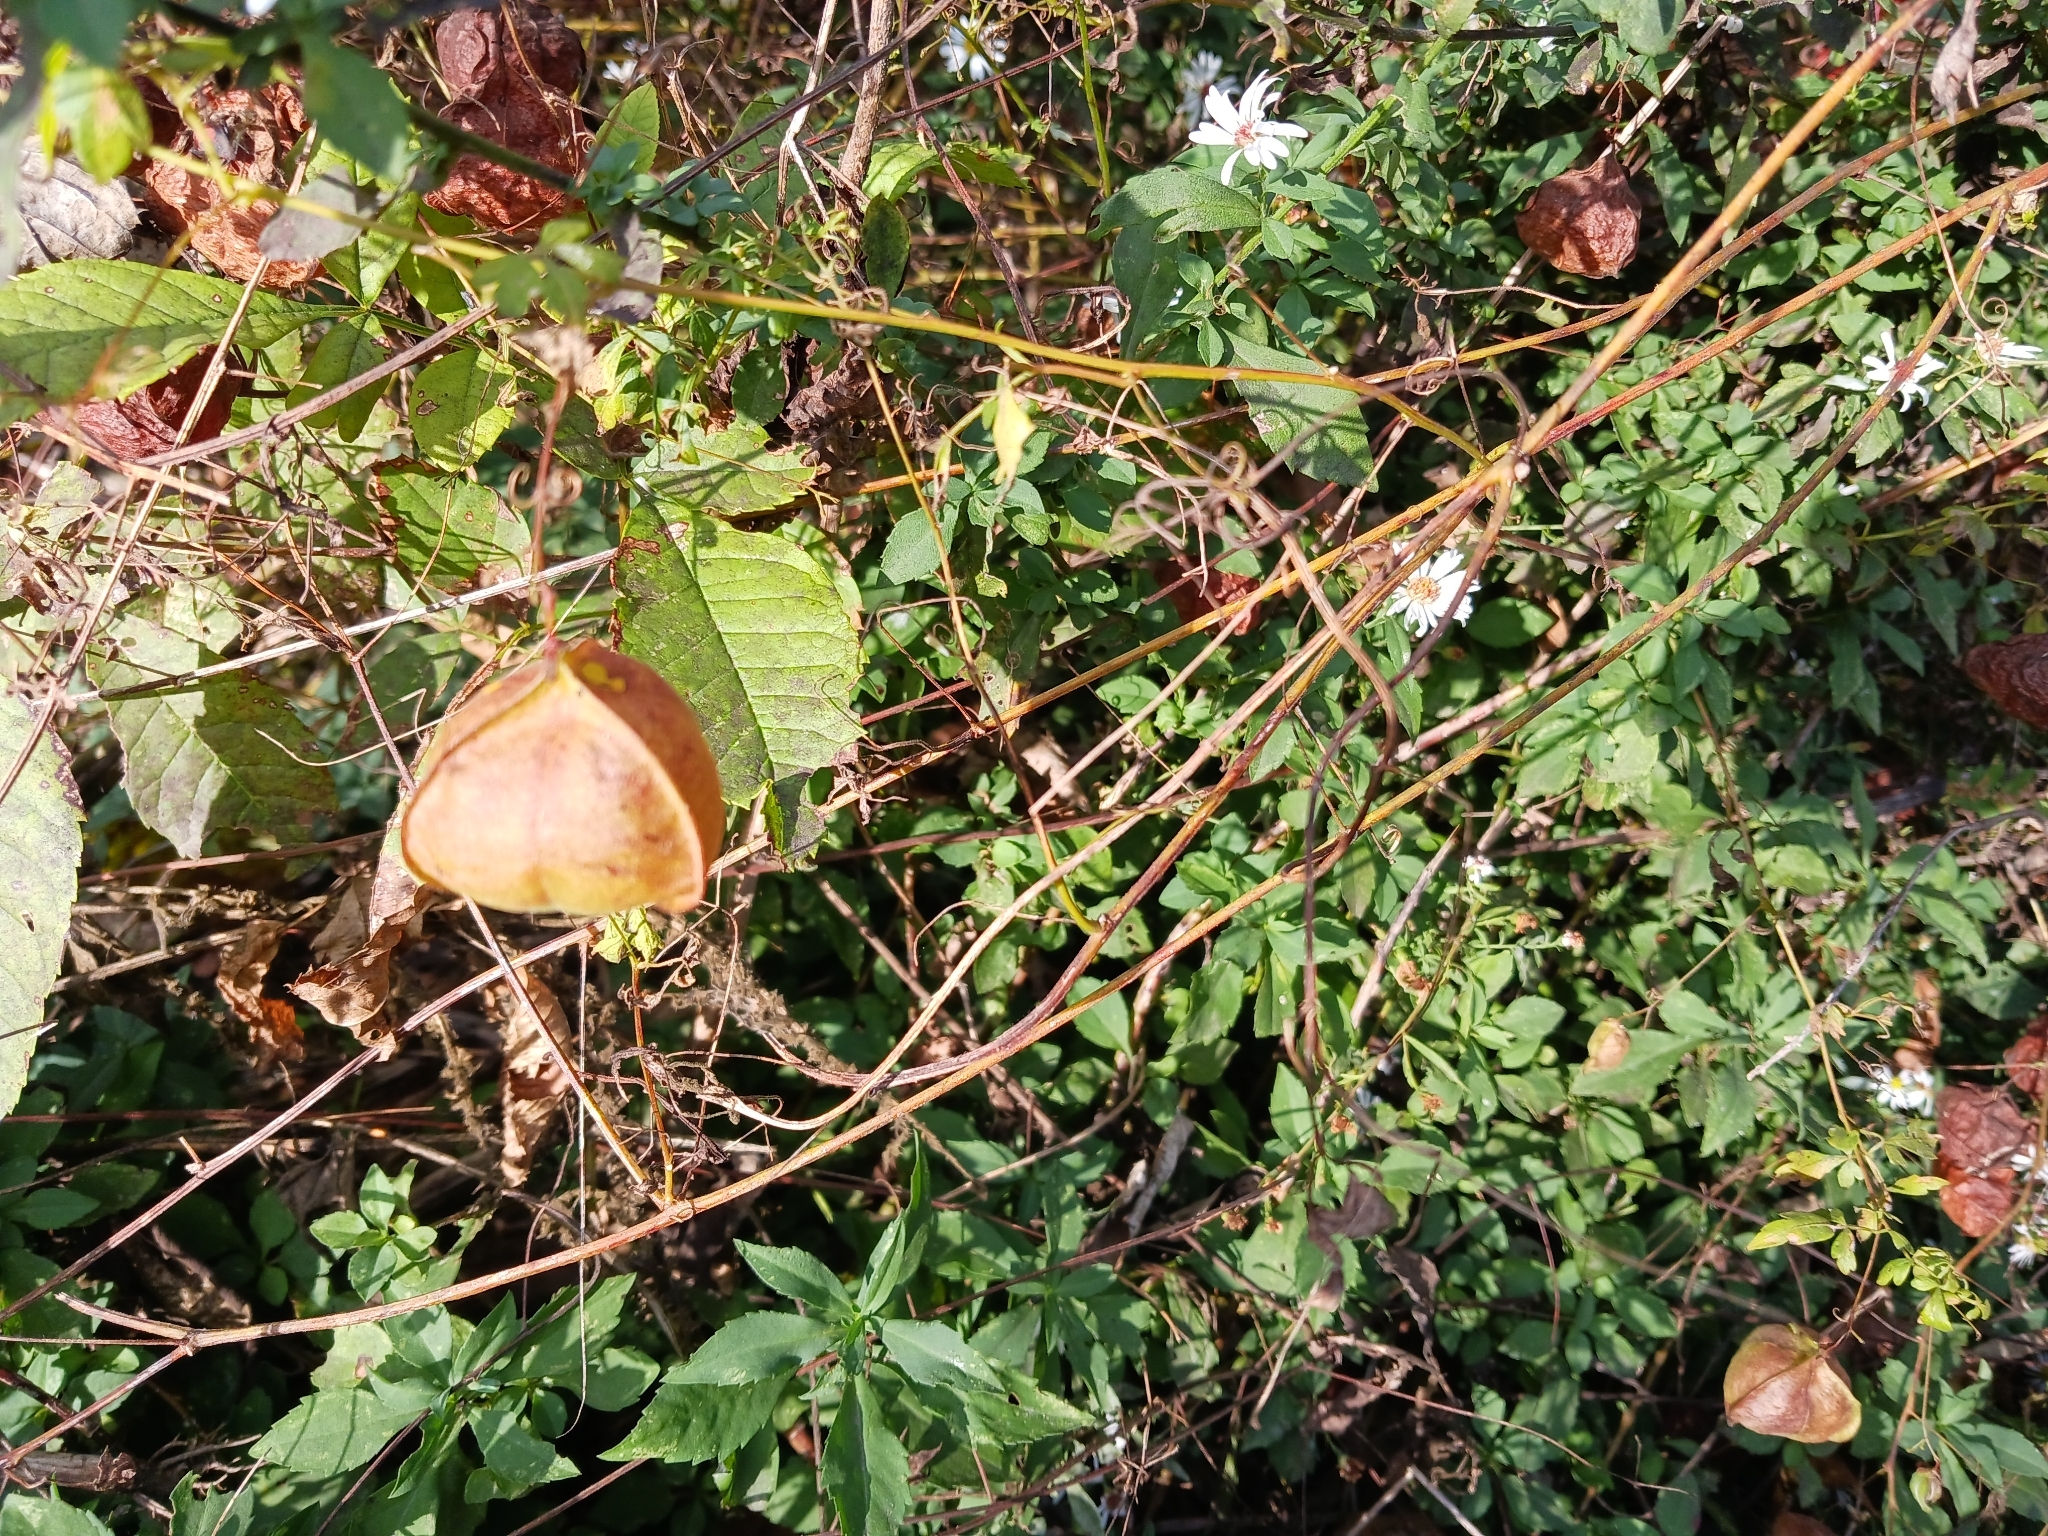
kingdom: Plantae
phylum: Tracheophyta
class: Magnoliopsida
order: Sapindales
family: Sapindaceae
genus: Cardiospermum
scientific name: Cardiospermum halicacabum
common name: Balloon vine
